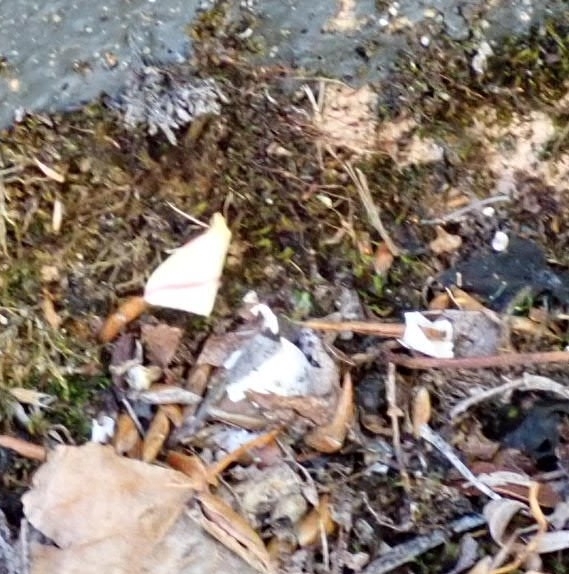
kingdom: Animalia
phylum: Arthropoda
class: Insecta
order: Lepidoptera
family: Geometridae
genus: Rhodometra
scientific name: Rhodometra sacraria
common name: Vestal
